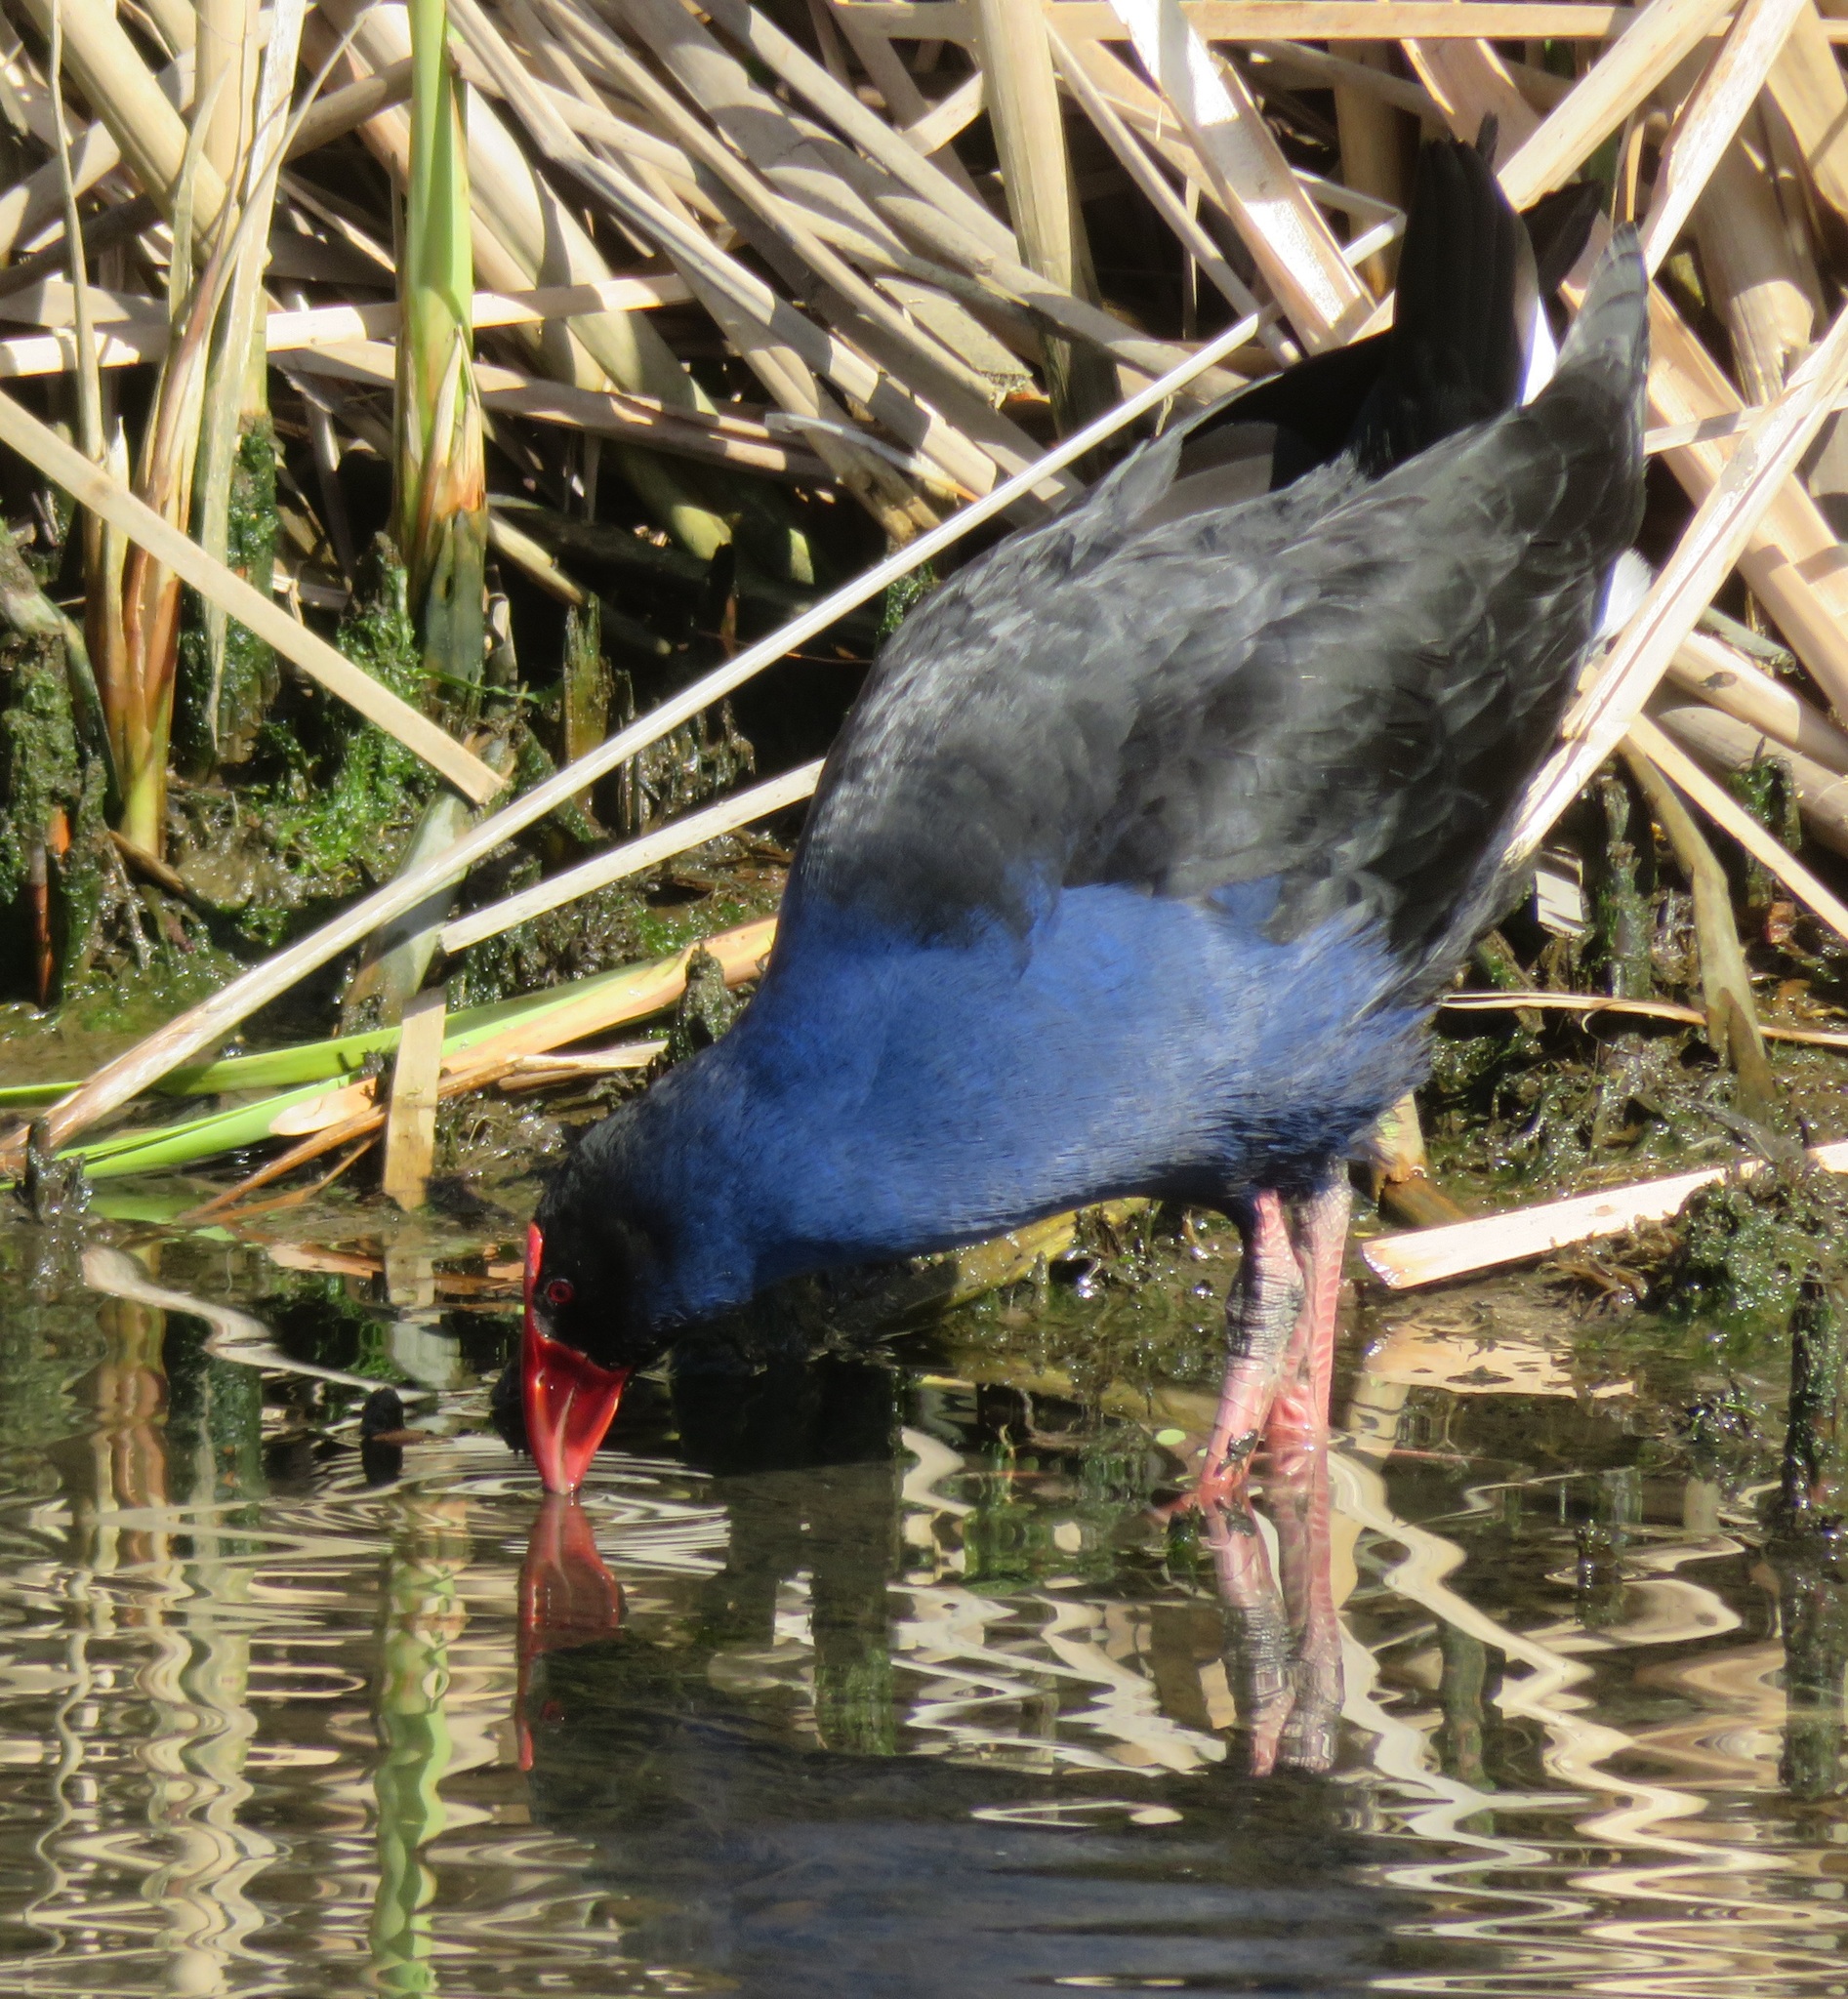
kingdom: Animalia
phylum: Chordata
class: Aves
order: Gruiformes
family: Rallidae
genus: Porphyrio
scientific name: Porphyrio melanotus
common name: Australasian swamphen
